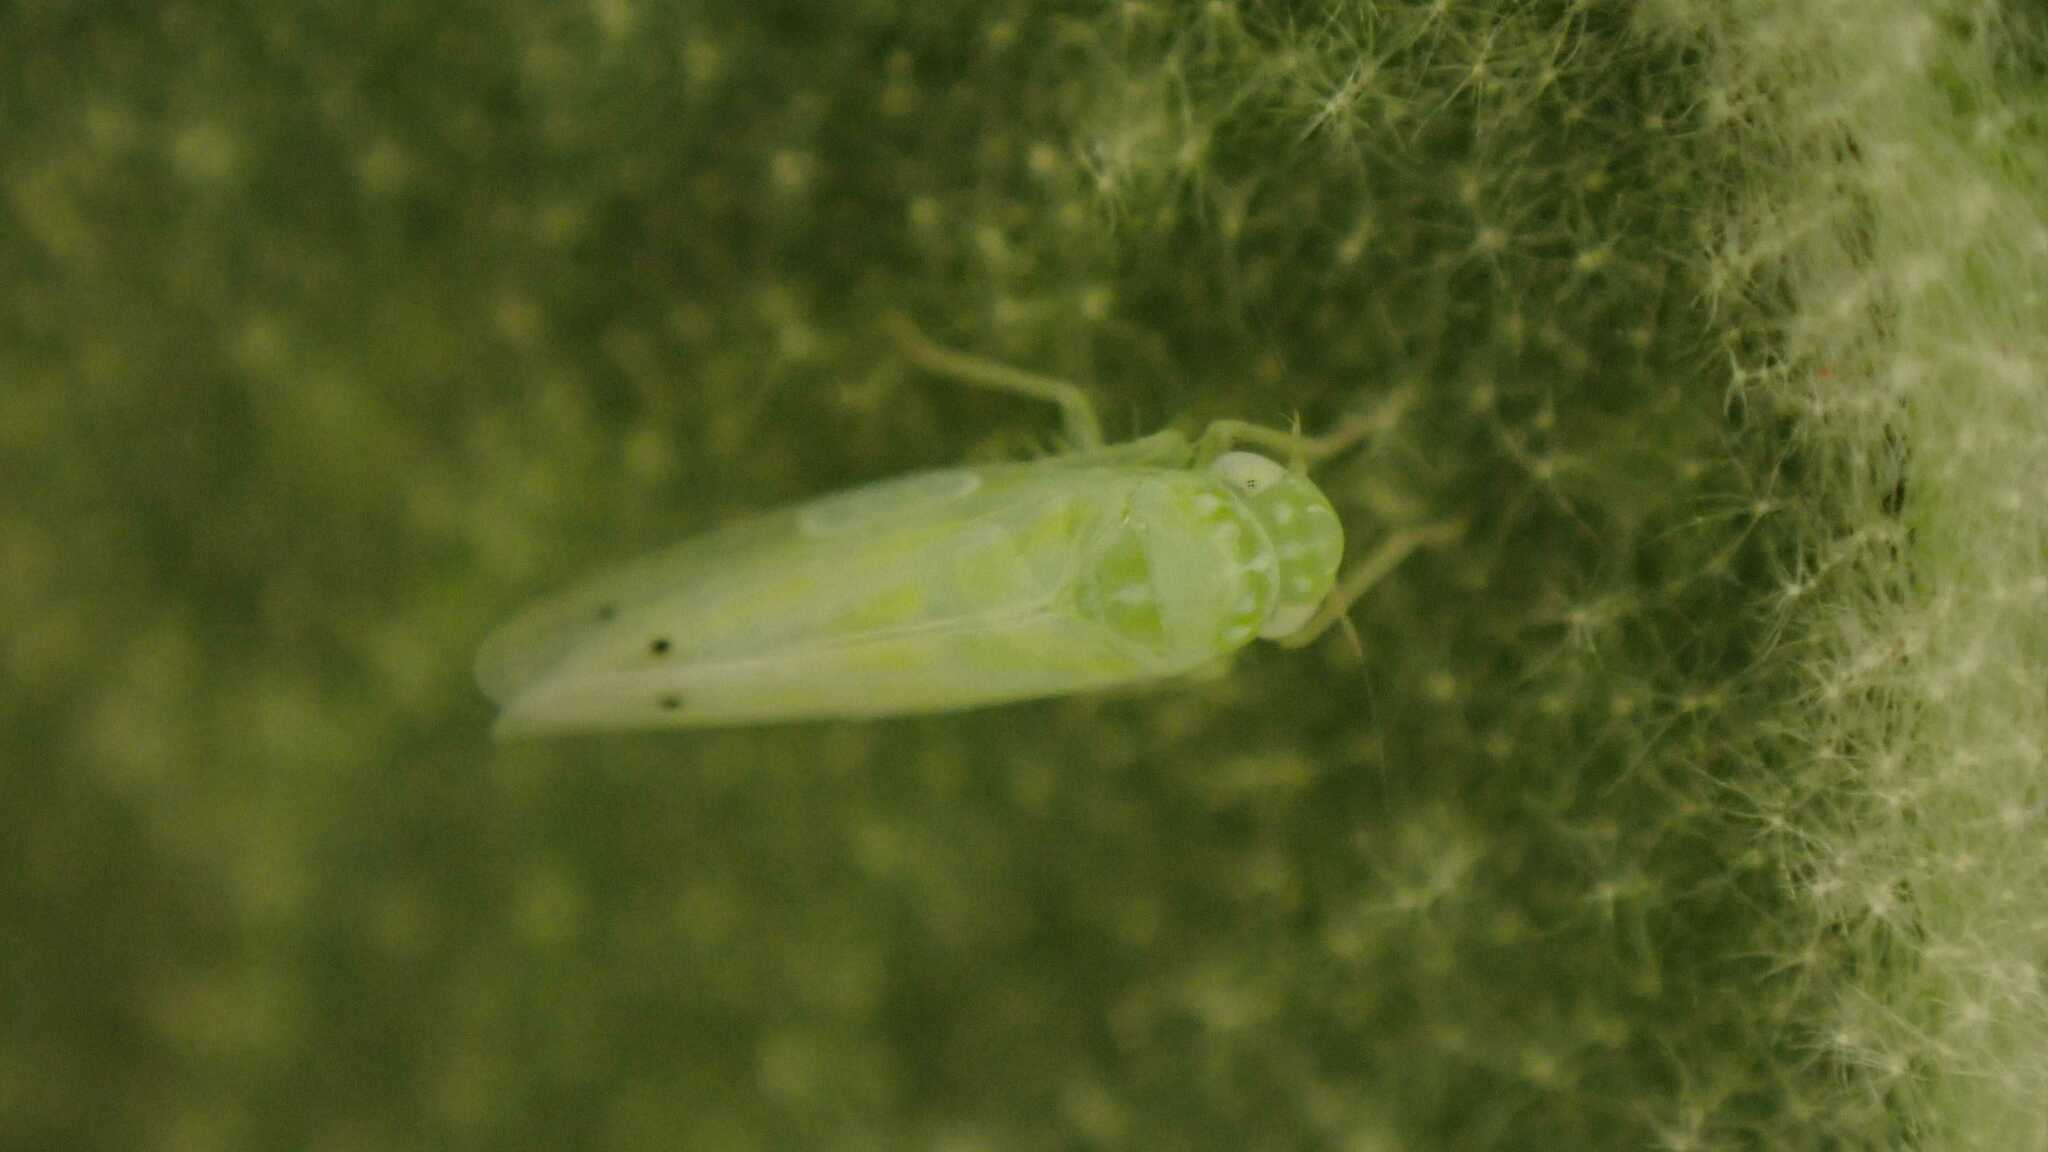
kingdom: Animalia
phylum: Arthropoda
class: Insecta
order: Hemiptera
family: Cicadellidae
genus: Micantulina
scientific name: Micantulina stigmatipennis
